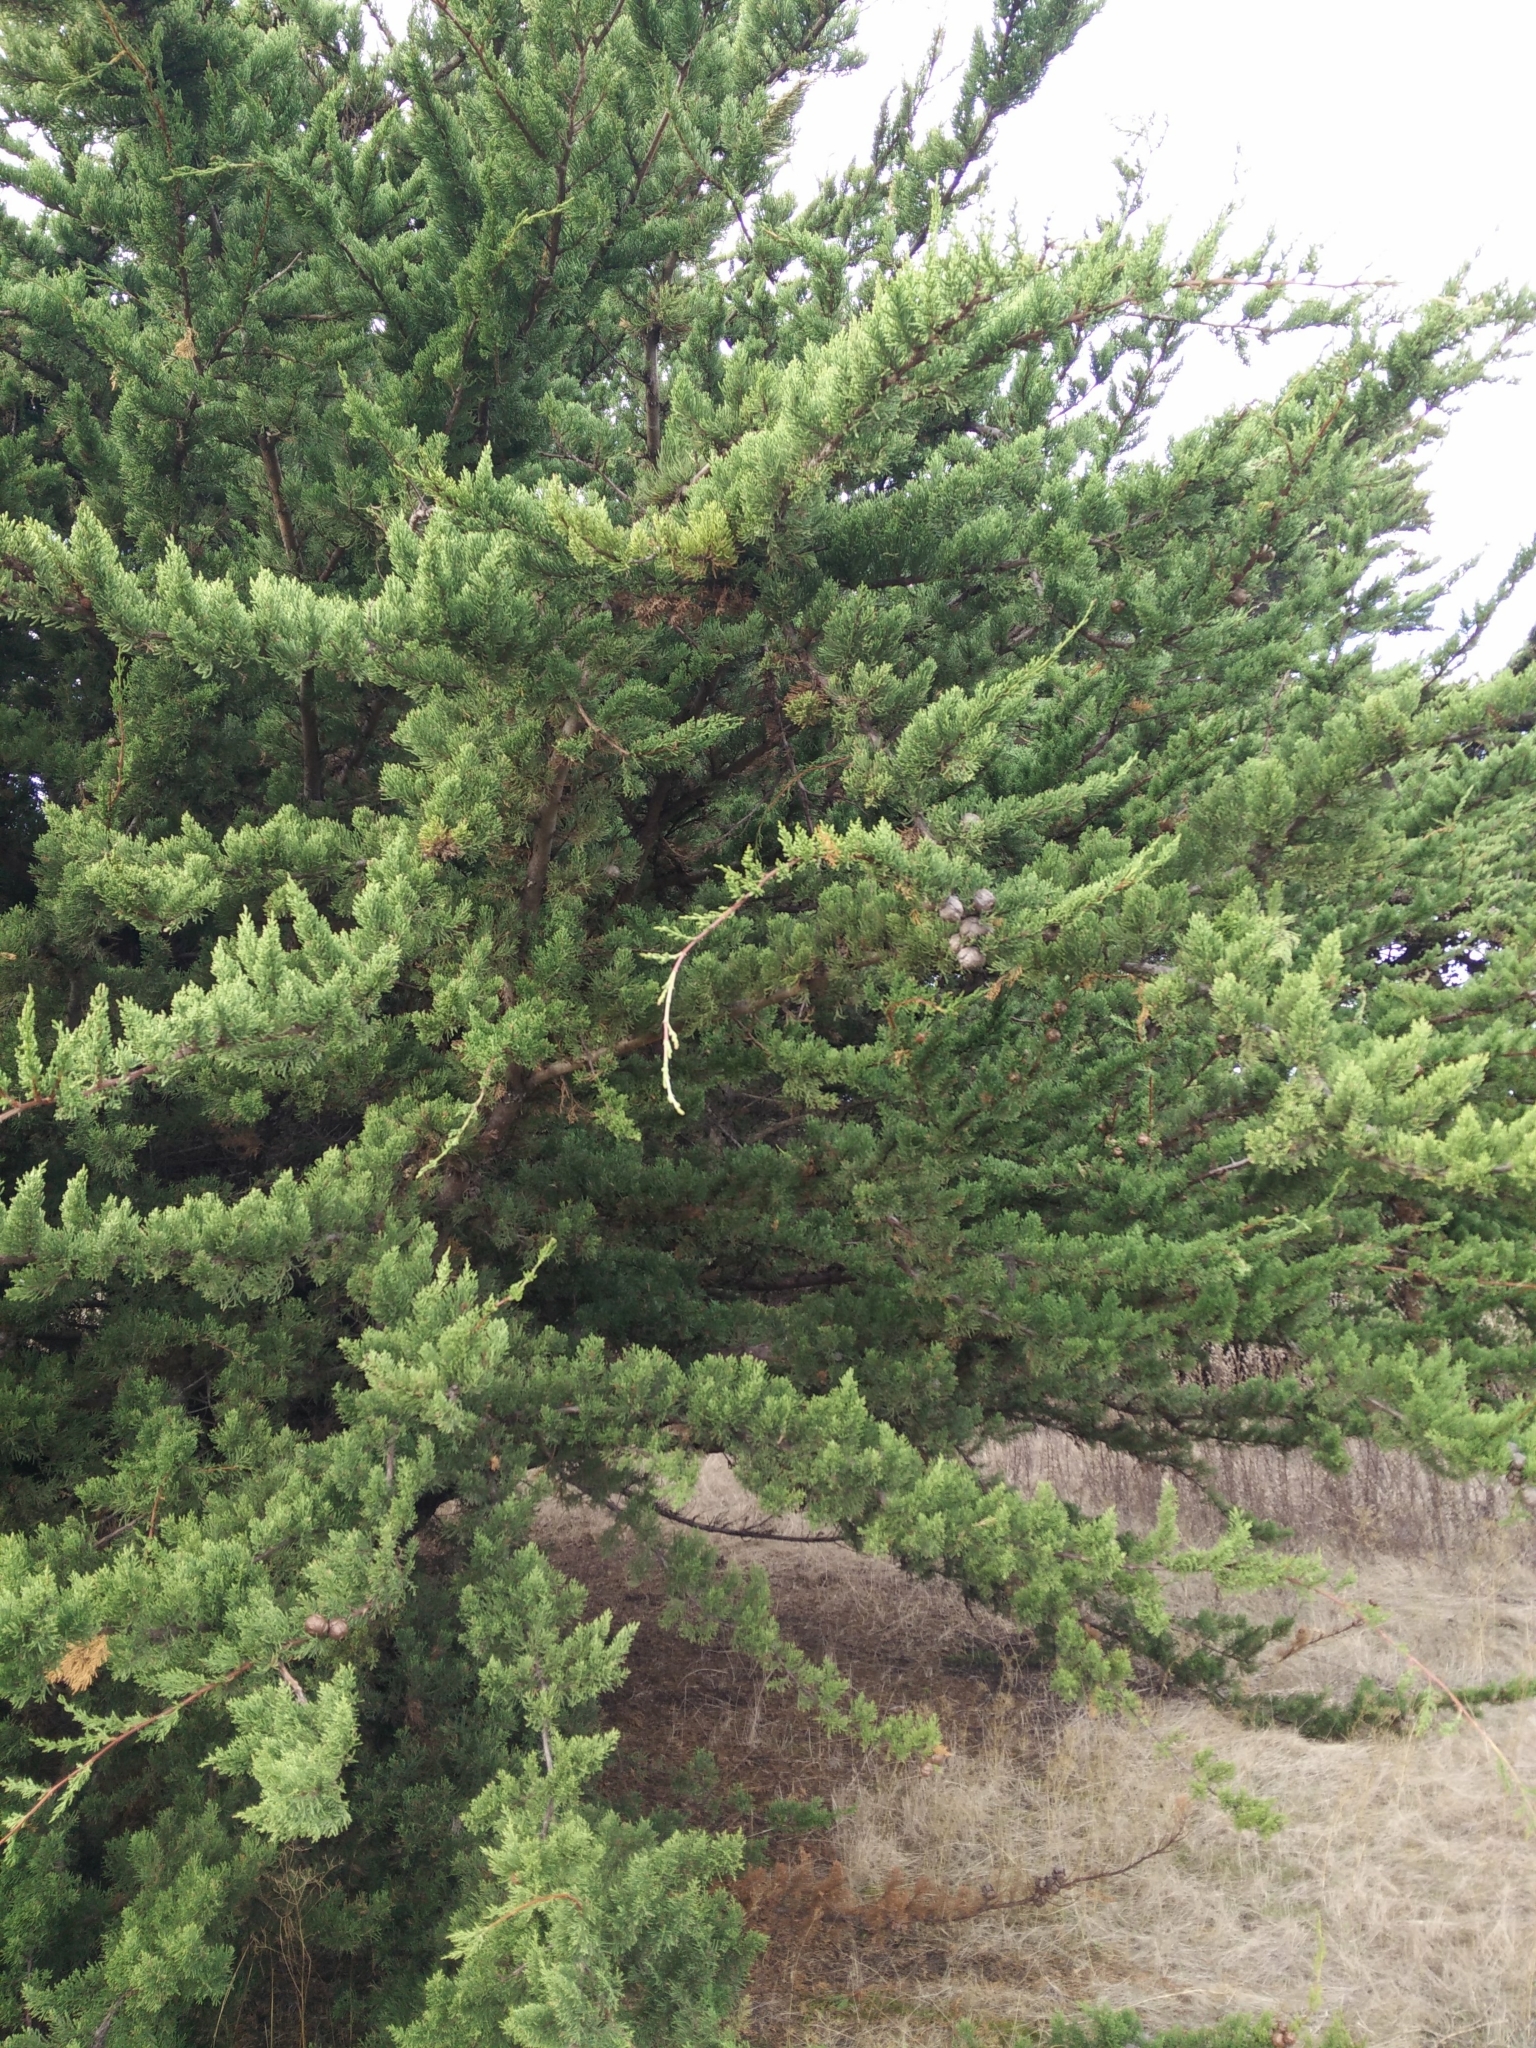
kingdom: Plantae
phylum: Tracheophyta
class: Pinopsida
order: Pinales
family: Cupressaceae
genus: Cupressus
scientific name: Cupressus macrocarpa
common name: Monterey cypress
